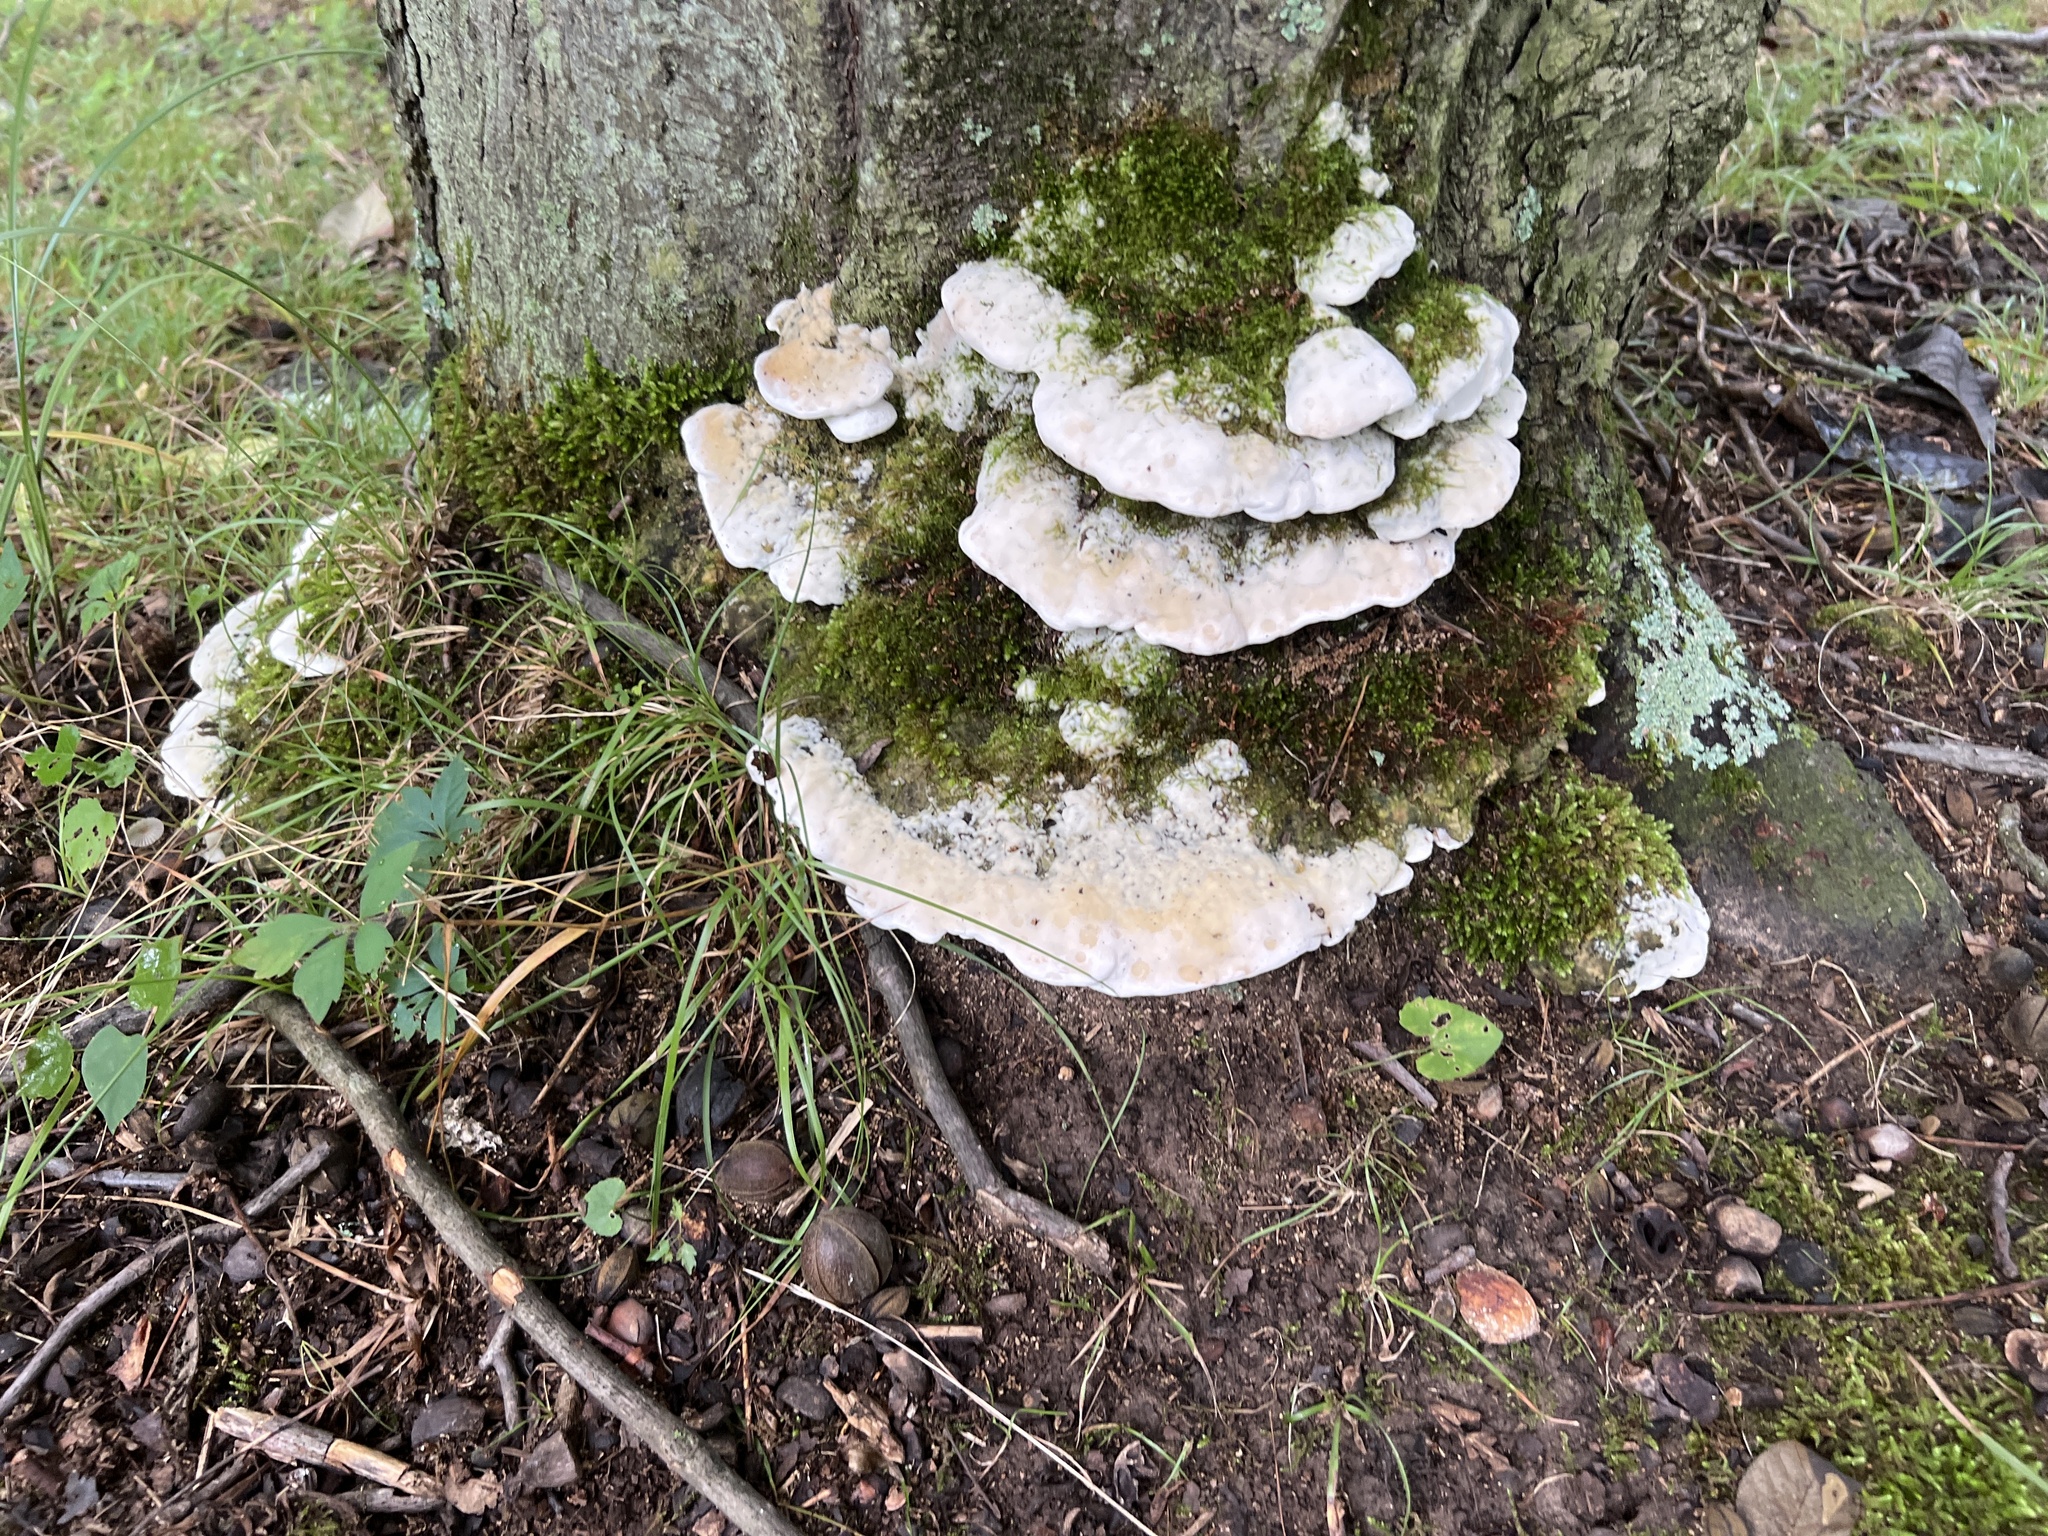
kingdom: Fungi
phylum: Basidiomycota
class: Agaricomycetes
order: Hymenochaetales
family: Oxyporaceae
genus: Oxyporus
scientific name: Oxyporus populinus
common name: Poplar bracket
